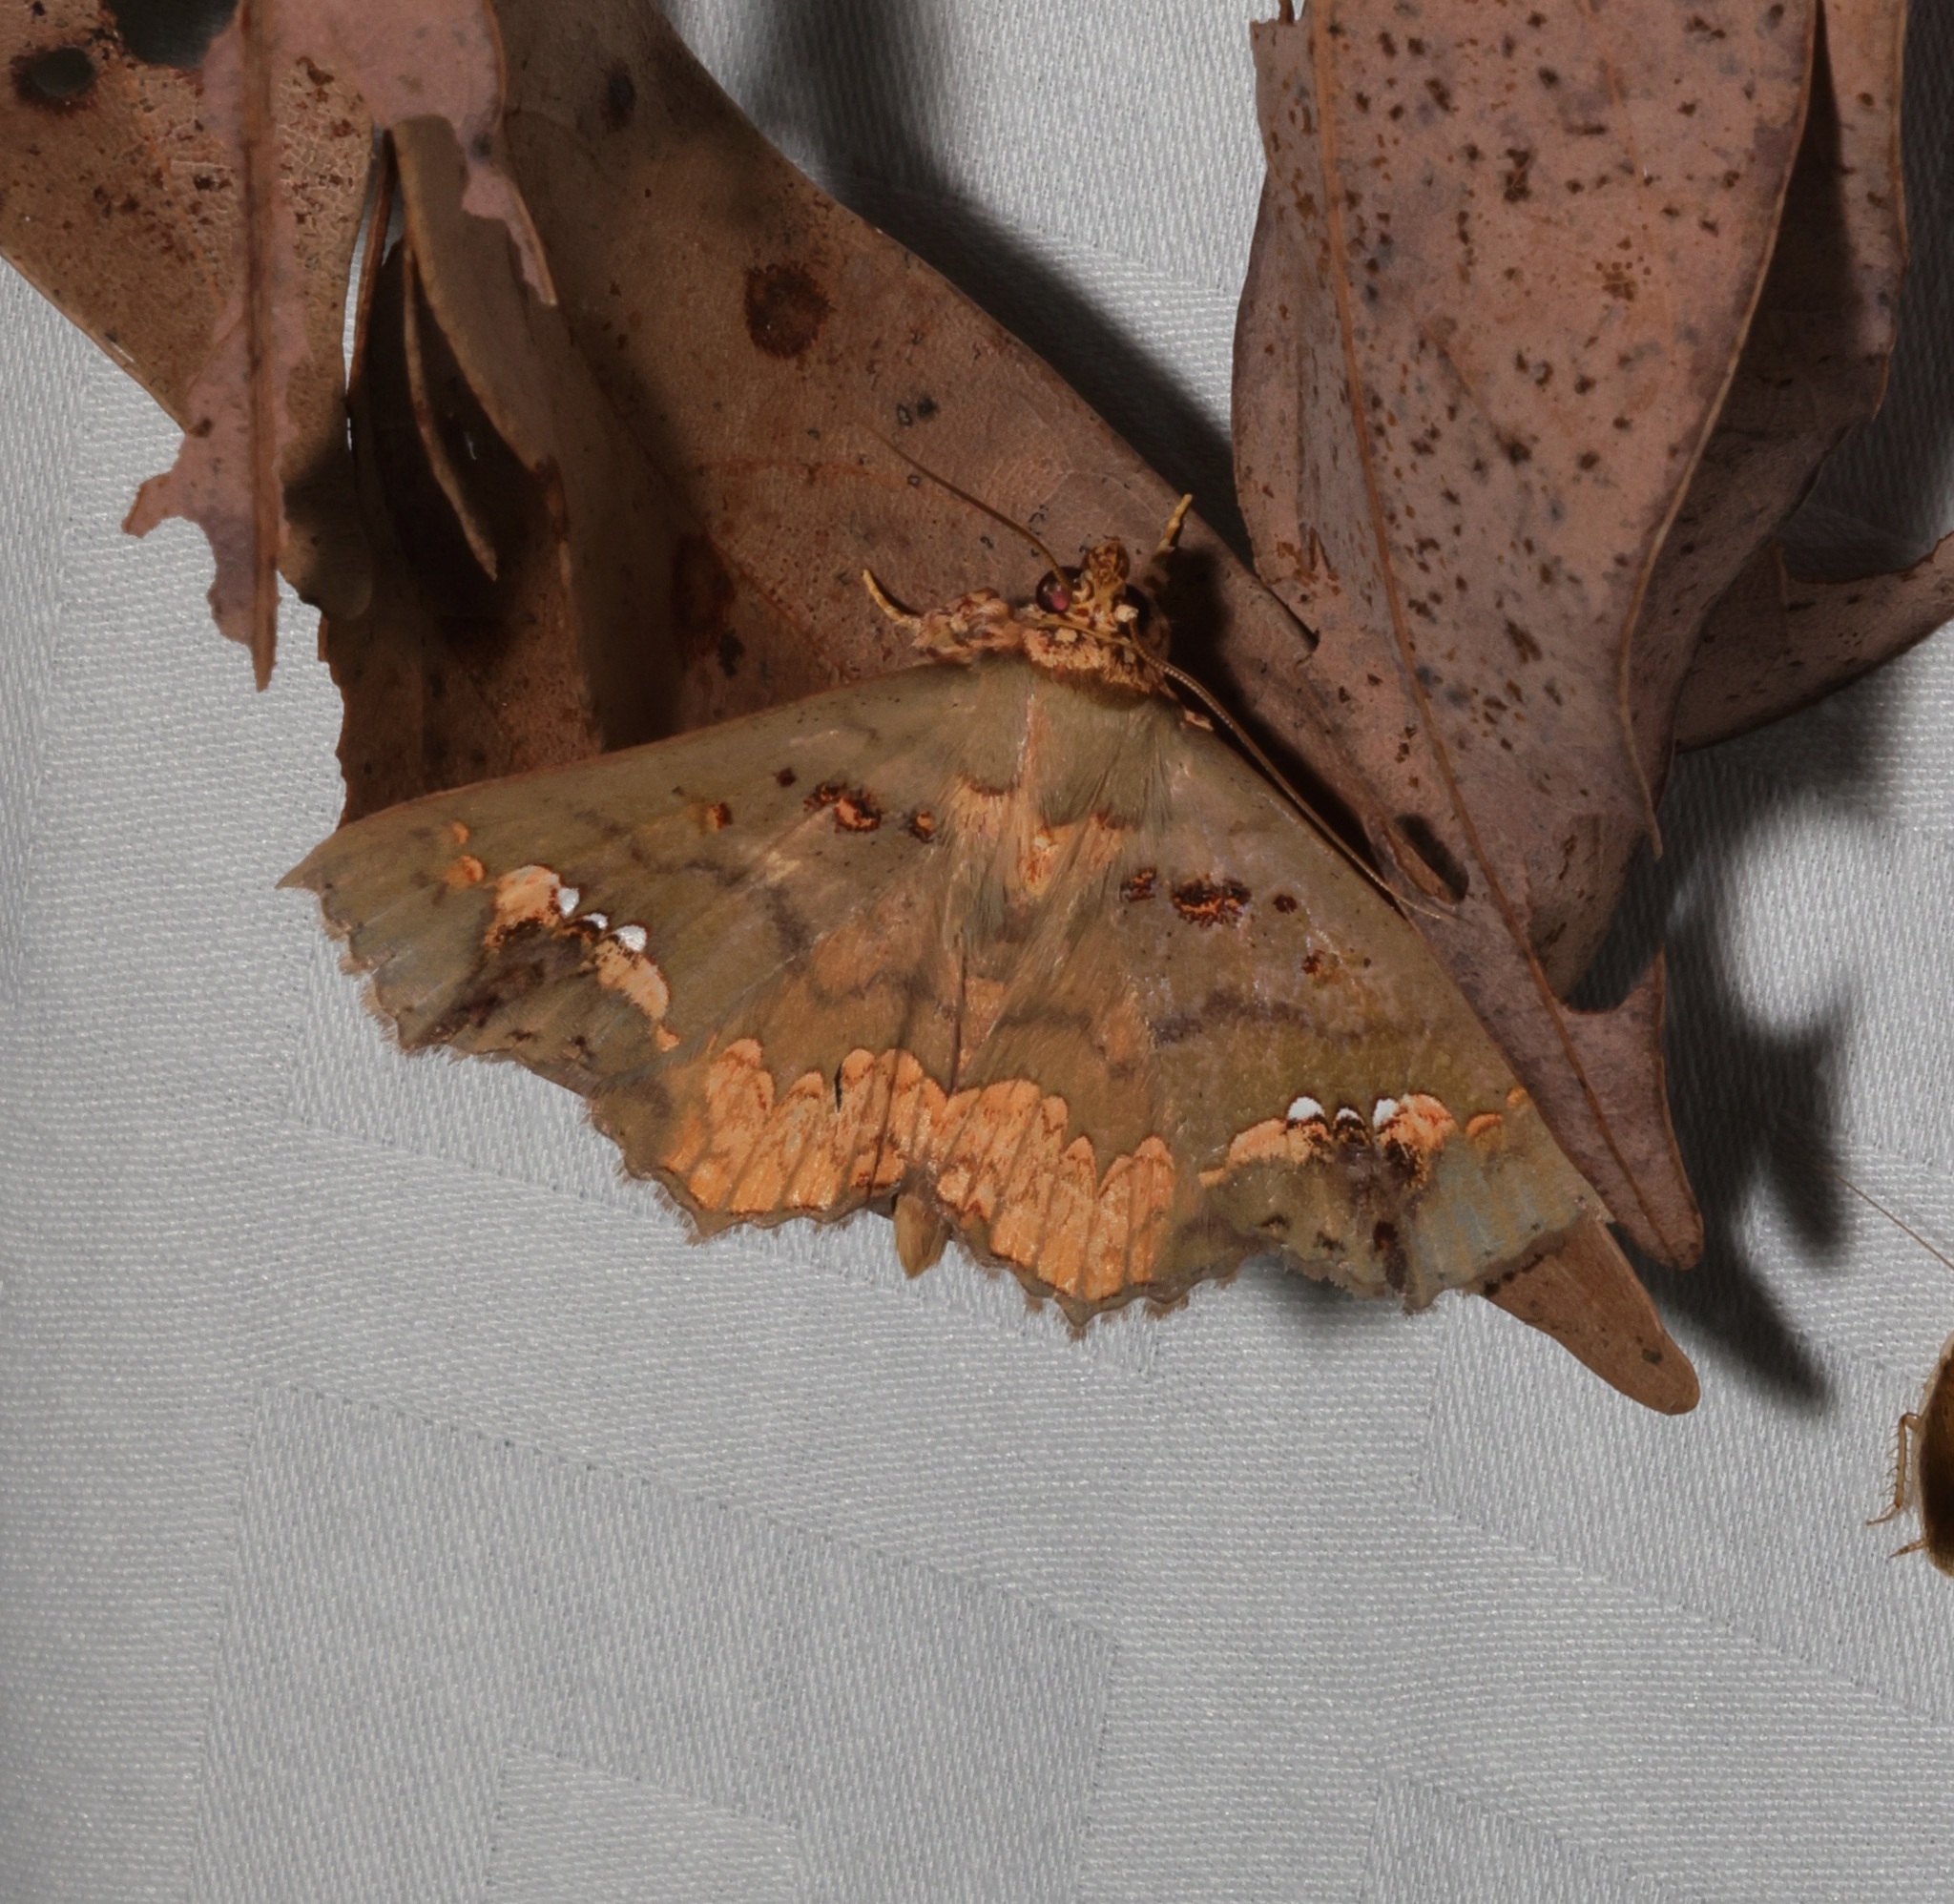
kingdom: Animalia
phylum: Arthropoda
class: Insecta
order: Lepidoptera
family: Erebidae
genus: Lopharthrum
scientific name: Lopharthrum comprimens
